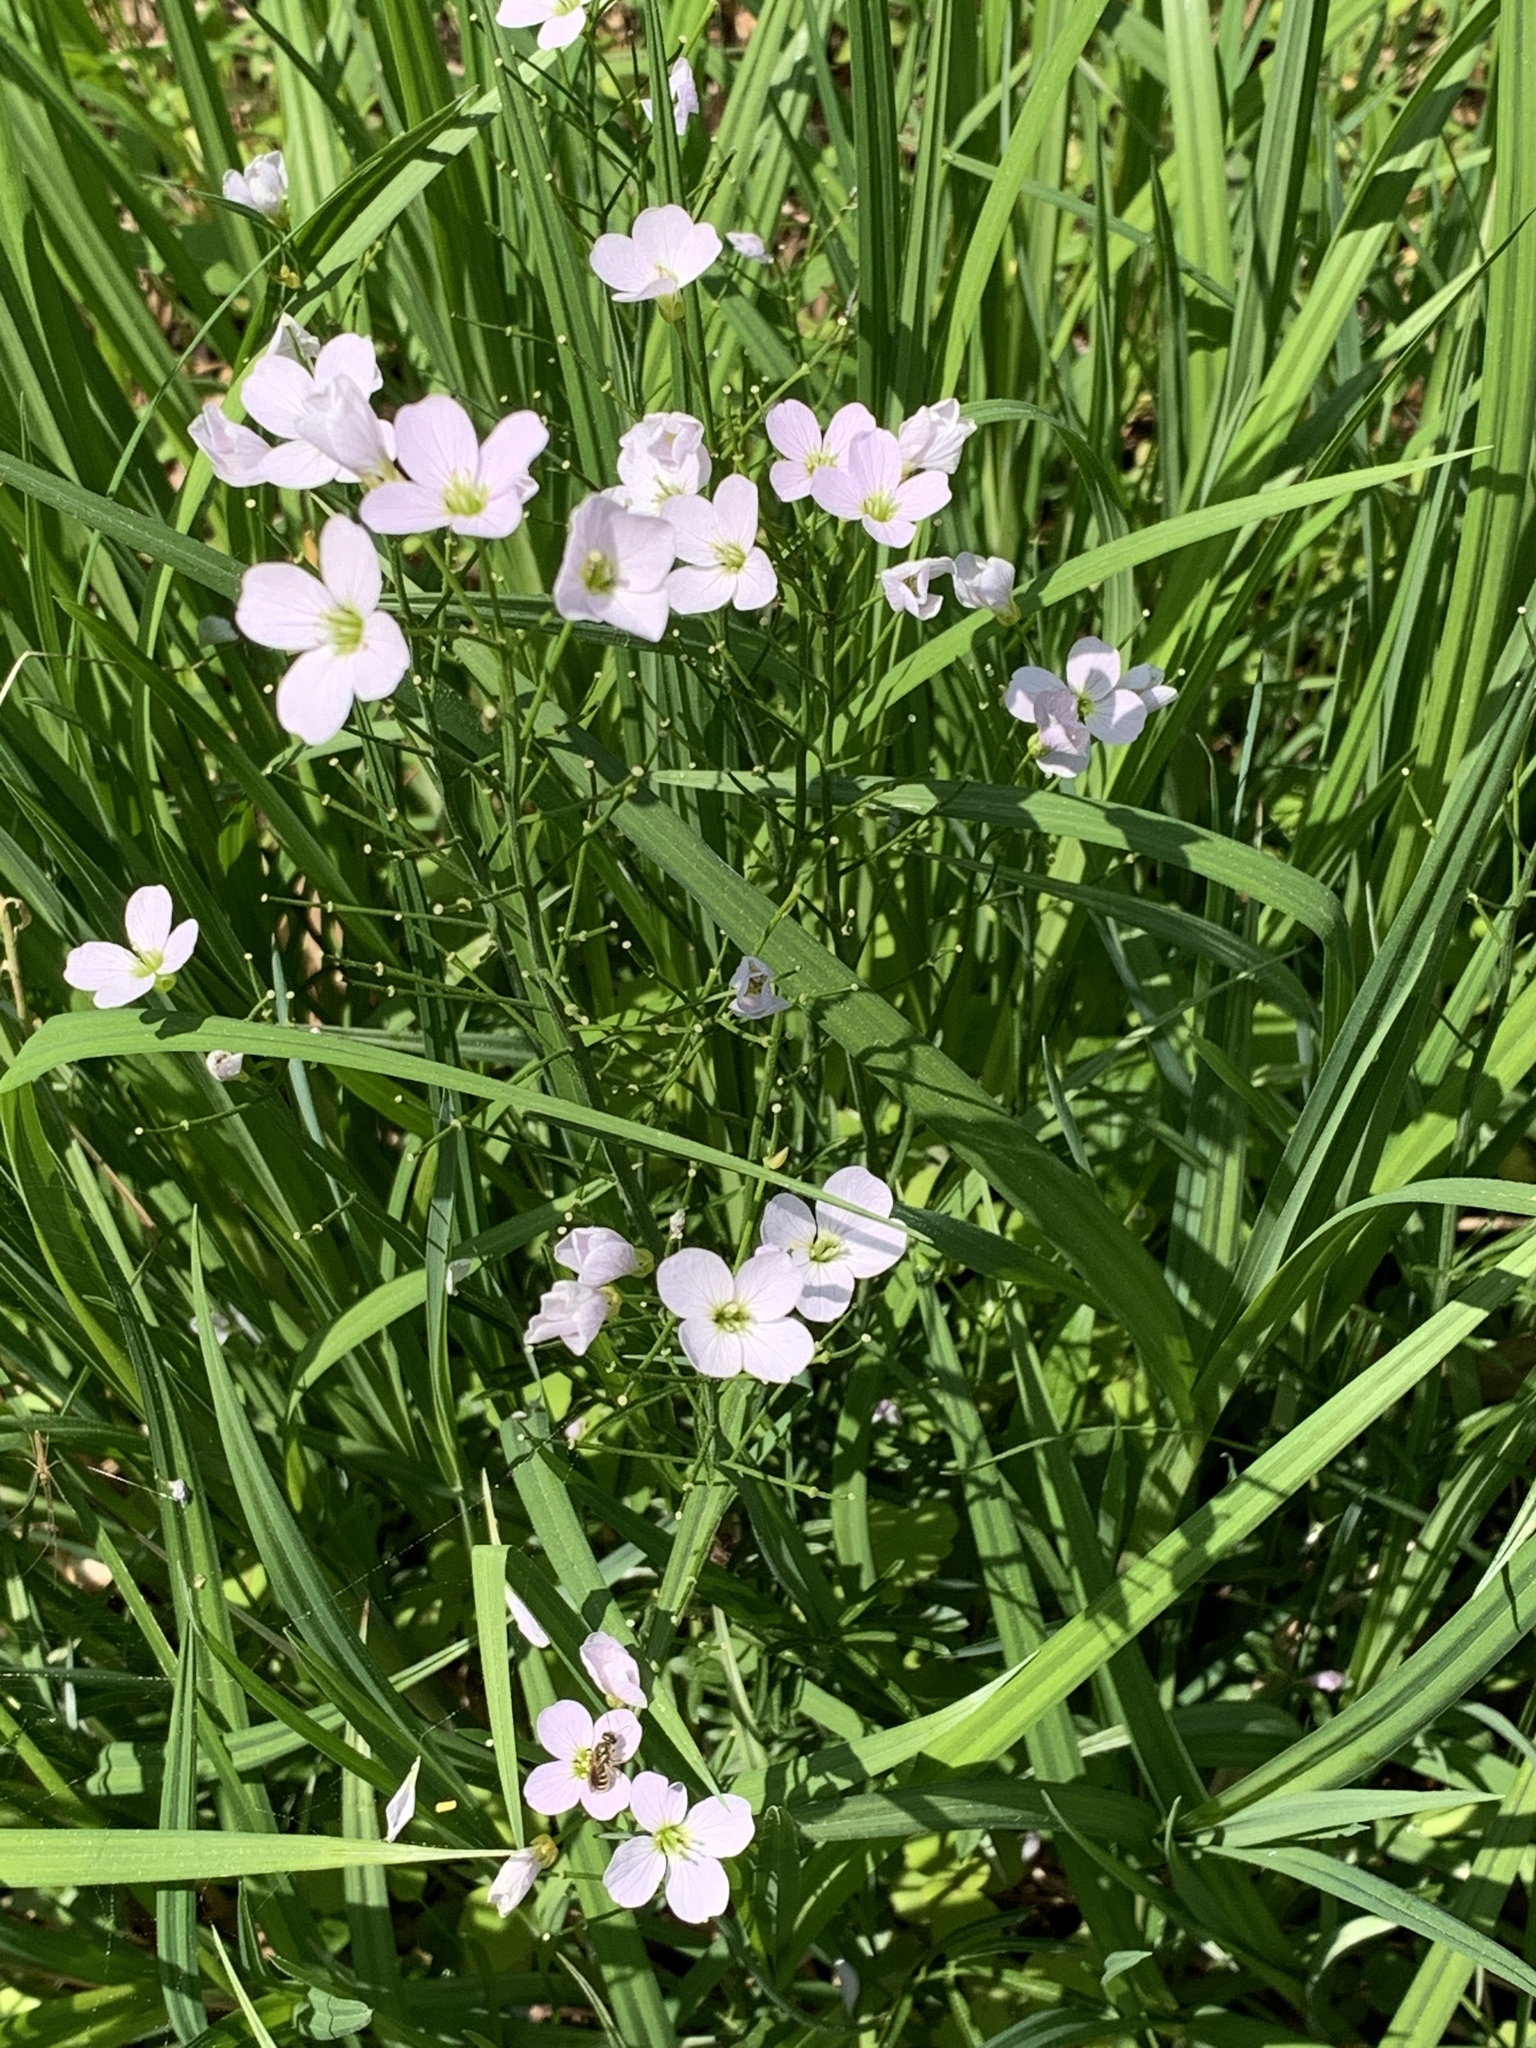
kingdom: Plantae
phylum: Tracheophyta
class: Magnoliopsida
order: Brassicales
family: Brassicaceae
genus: Cardamine
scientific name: Cardamine pratensis
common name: Cuckoo flower
